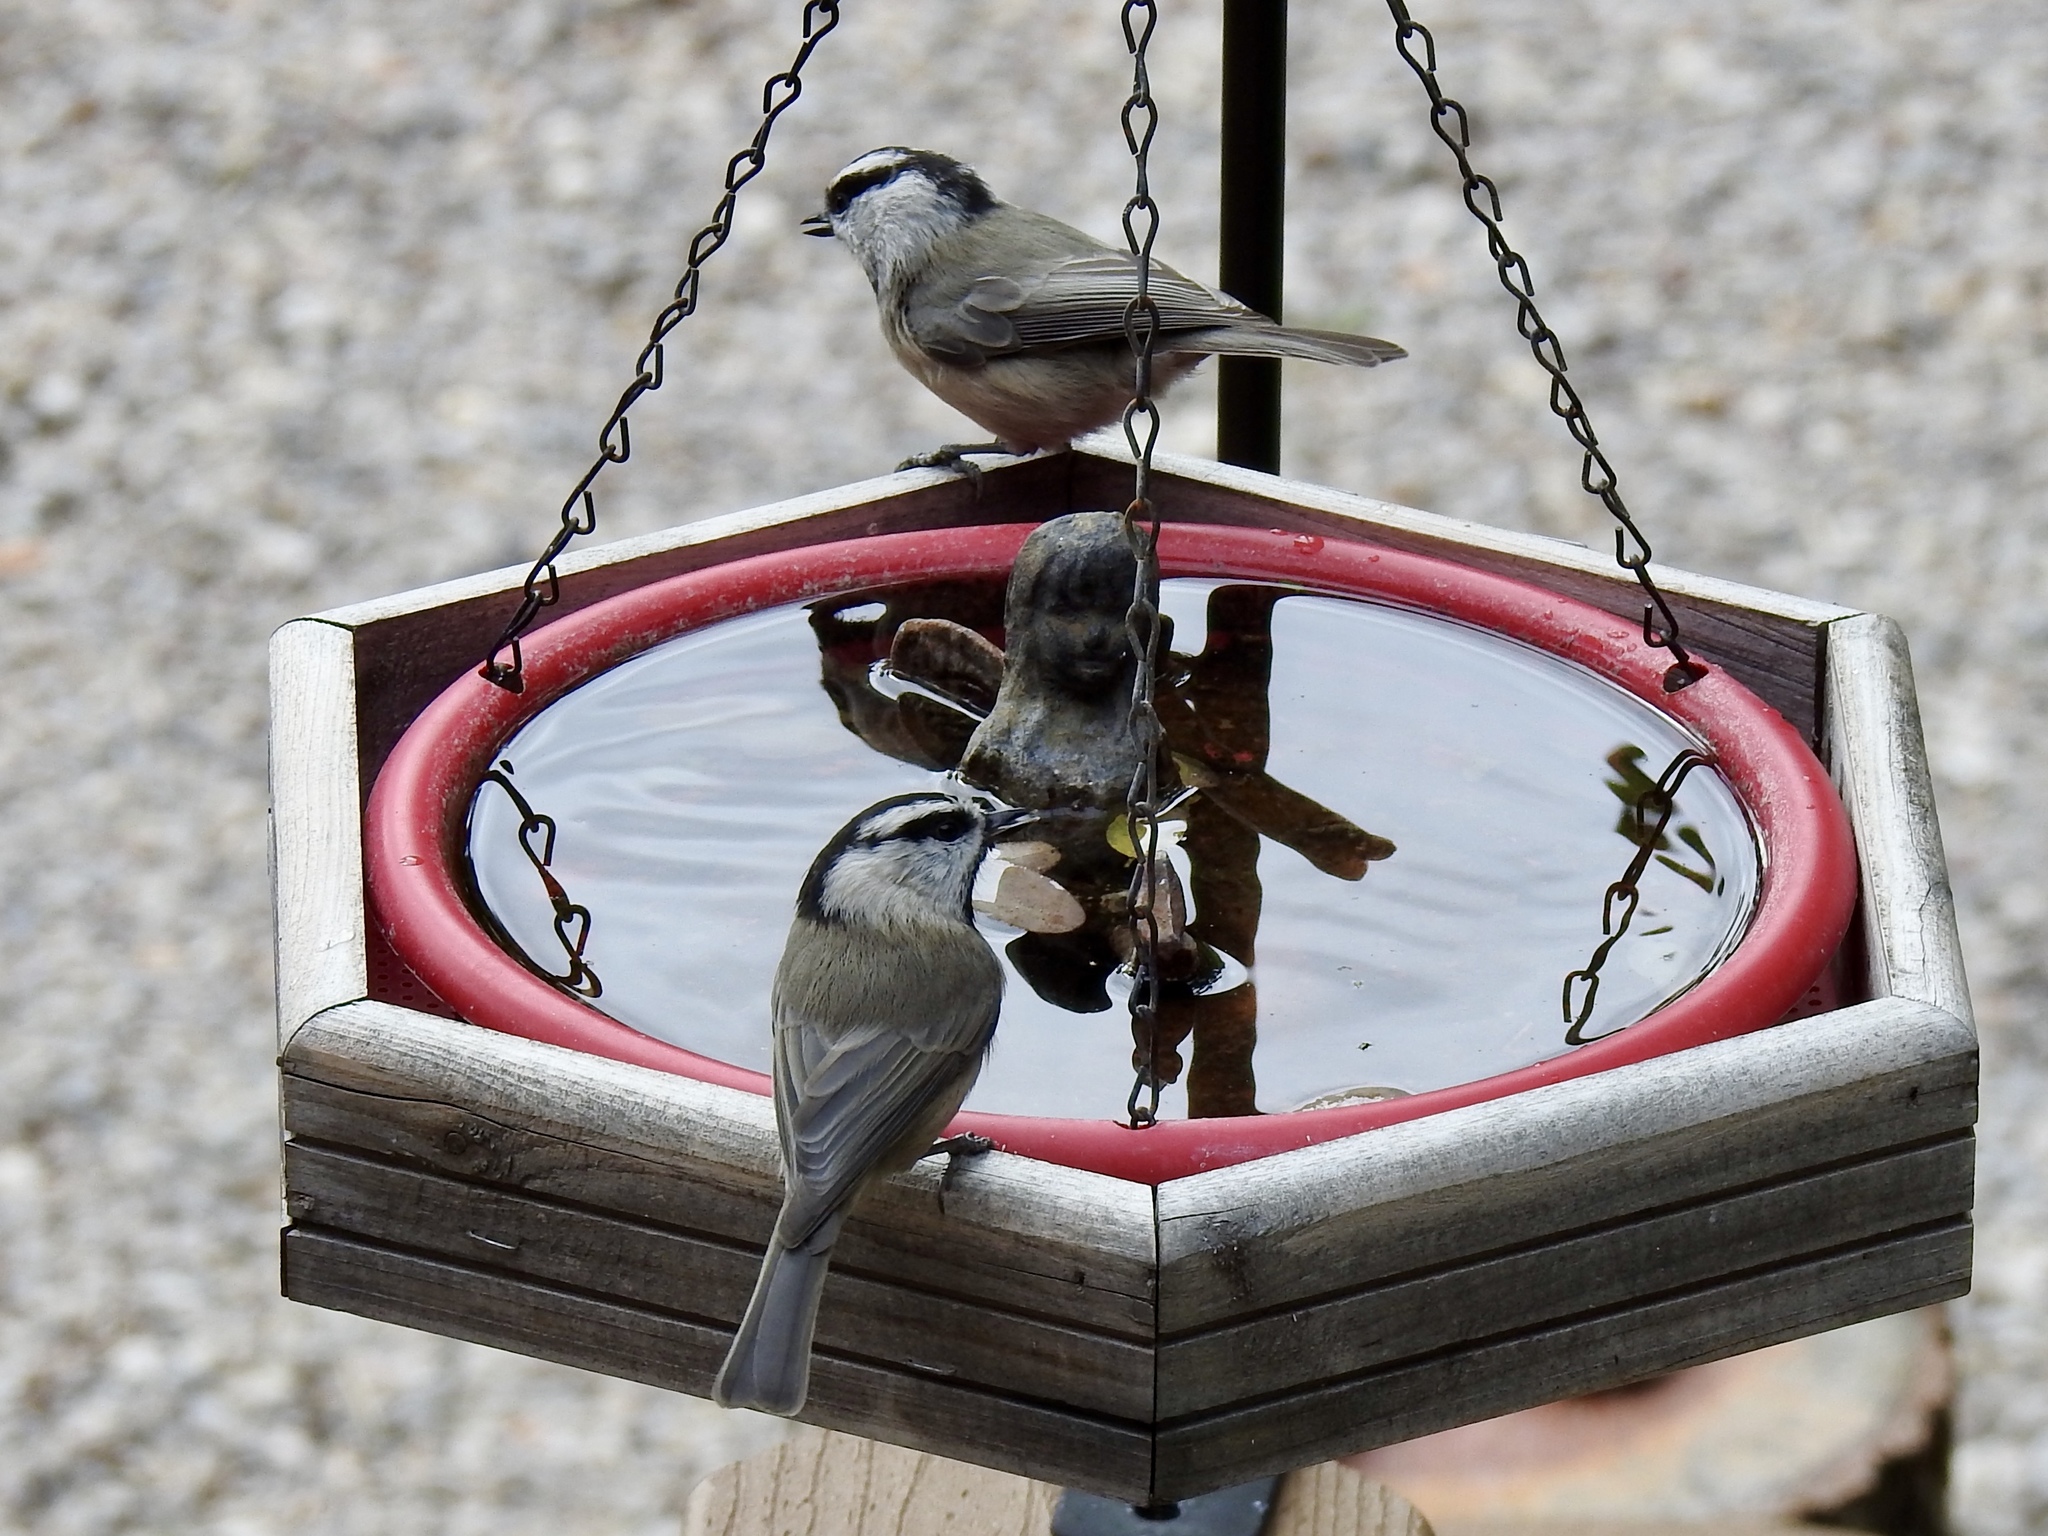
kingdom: Animalia
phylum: Chordata
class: Aves
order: Passeriformes
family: Paridae
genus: Poecile
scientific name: Poecile gambeli
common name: Mountain chickadee
